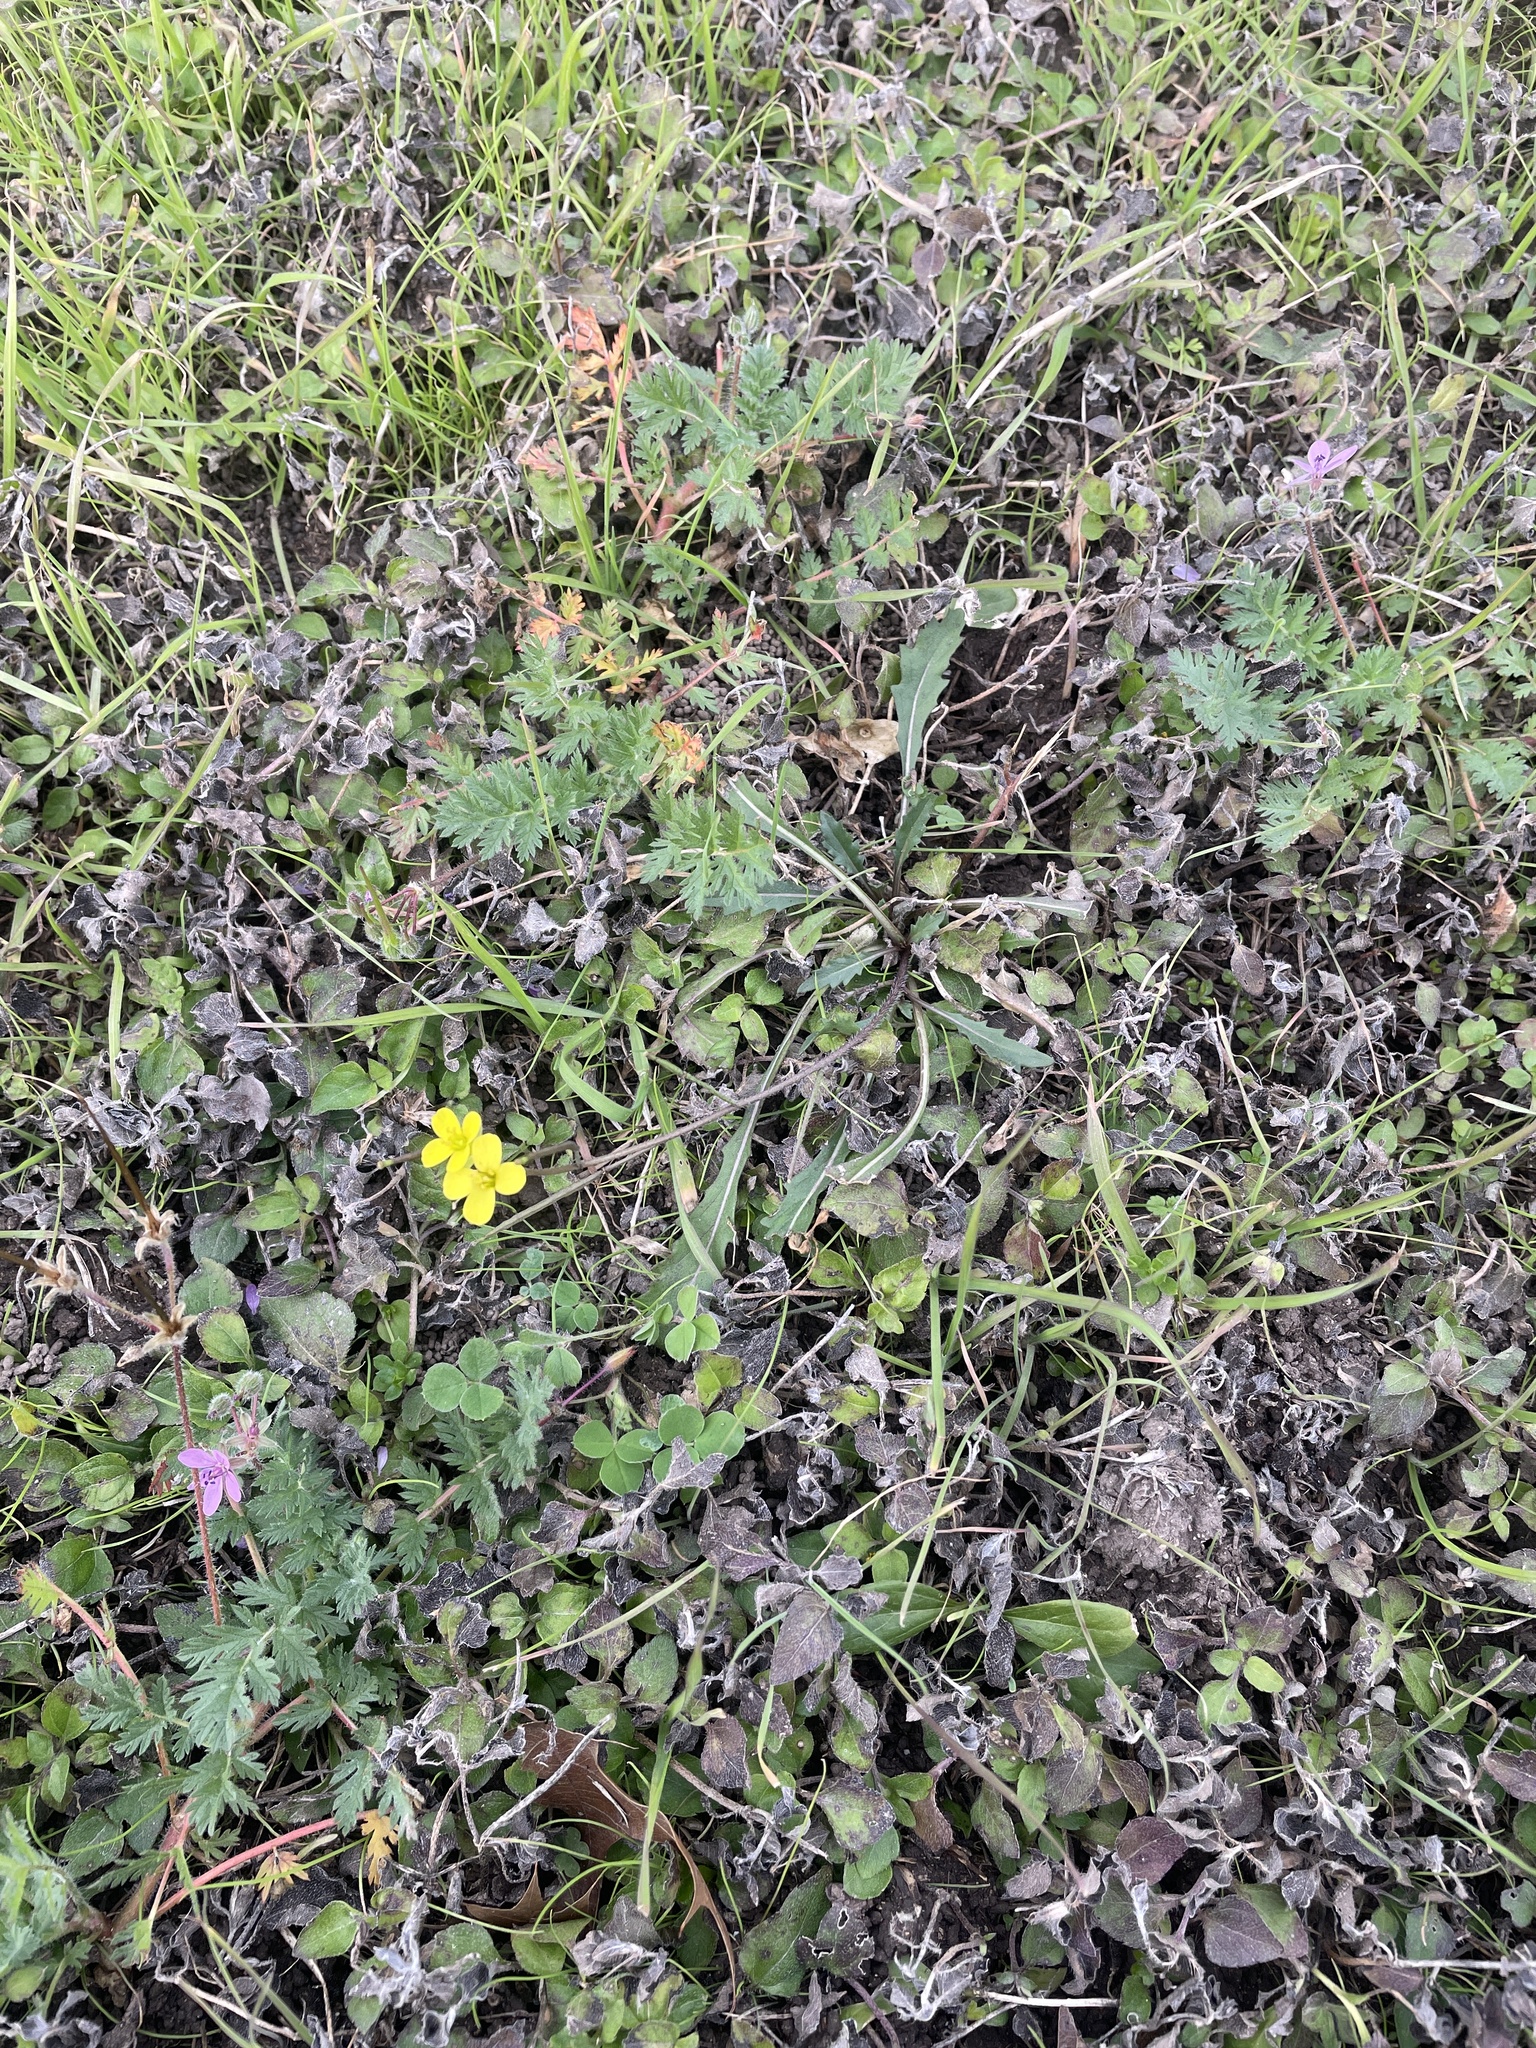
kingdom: Plantae
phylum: Tracheophyta
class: Magnoliopsida
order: Brassicales
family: Brassicaceae
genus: Diplotaxis
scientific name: Diplotaxis muralis
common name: Annual wall-rocket
